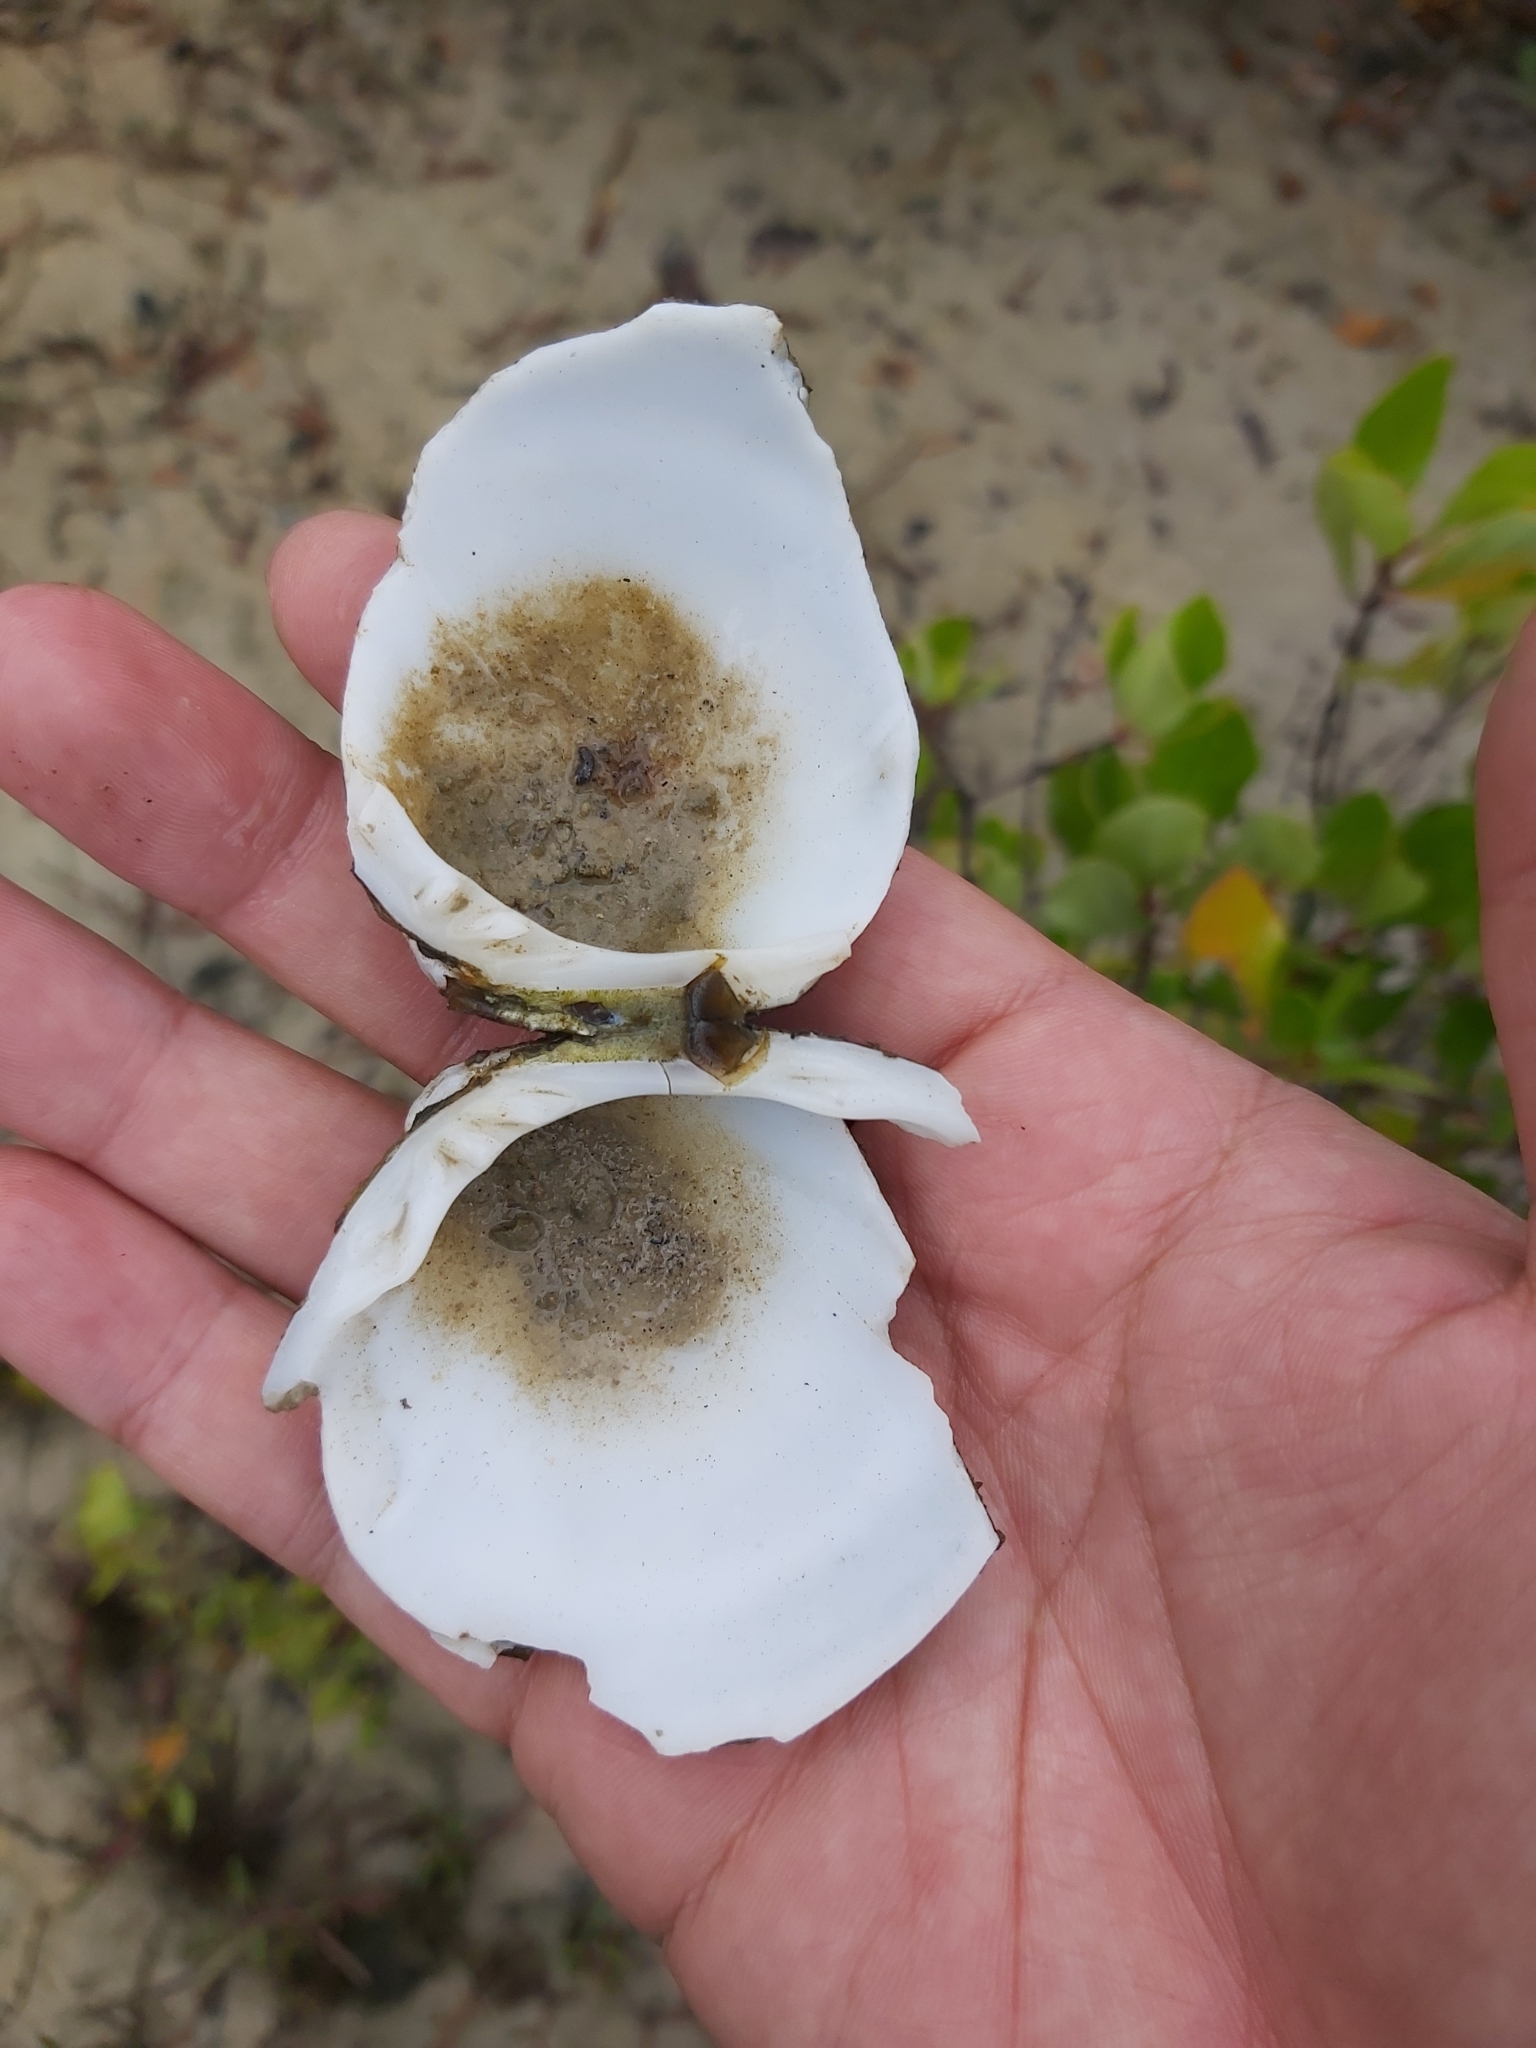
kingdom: Animalia
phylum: Mollusca
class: Bivalvia
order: Venerida
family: Cyrenidae
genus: Geloina
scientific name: Geloina coaxans
